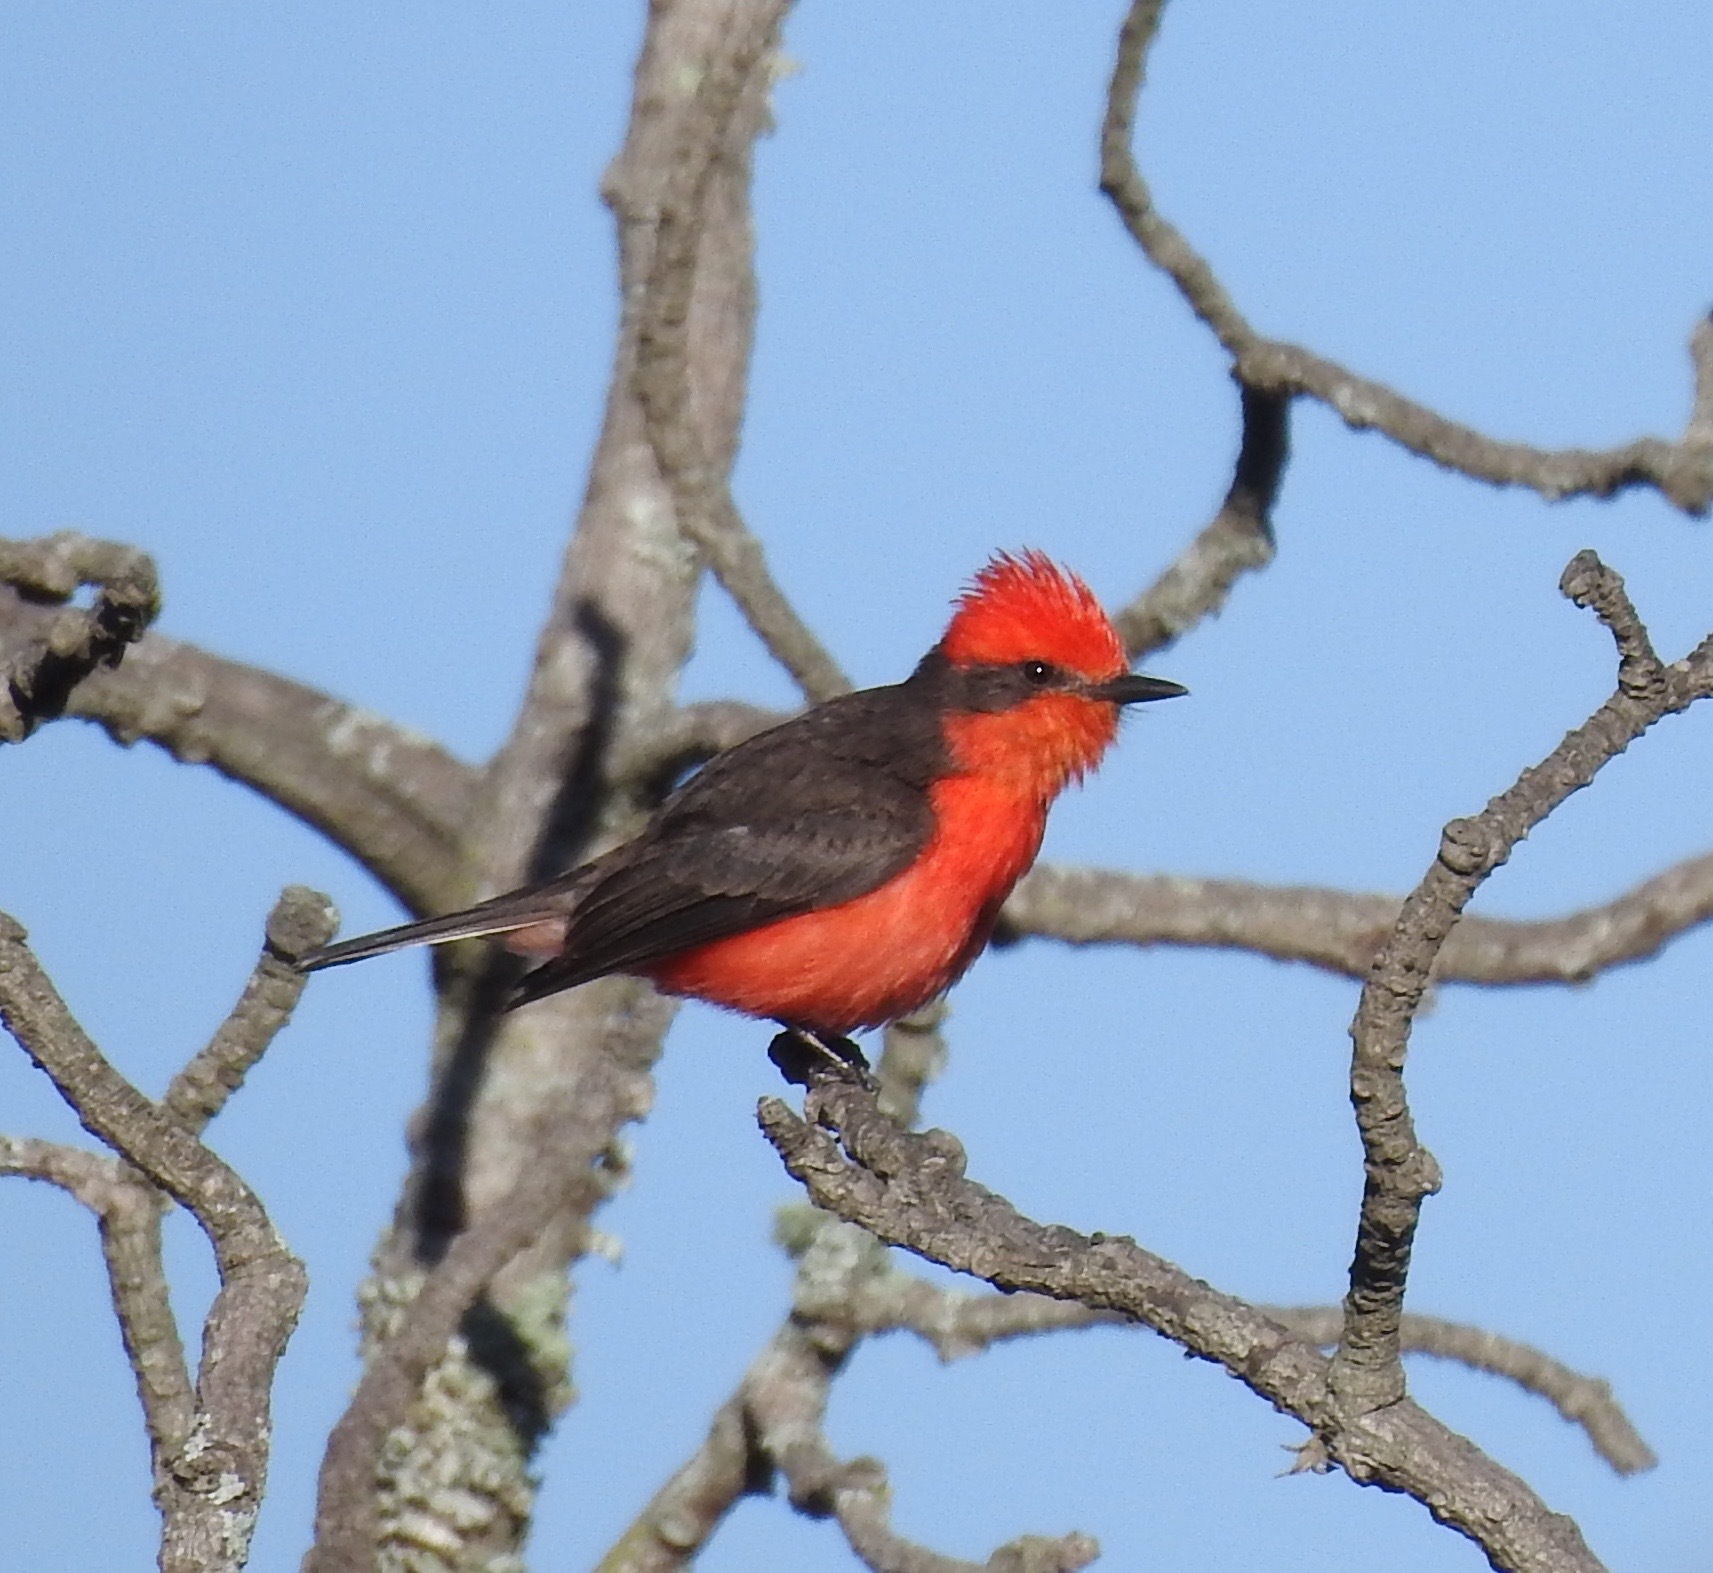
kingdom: Animalia
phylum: Chordata
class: Aves
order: Passeriformes
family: Tyrannidae
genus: Pyrocephalus
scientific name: Pyrocephalus rubinus
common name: Vermilion flycatcher
